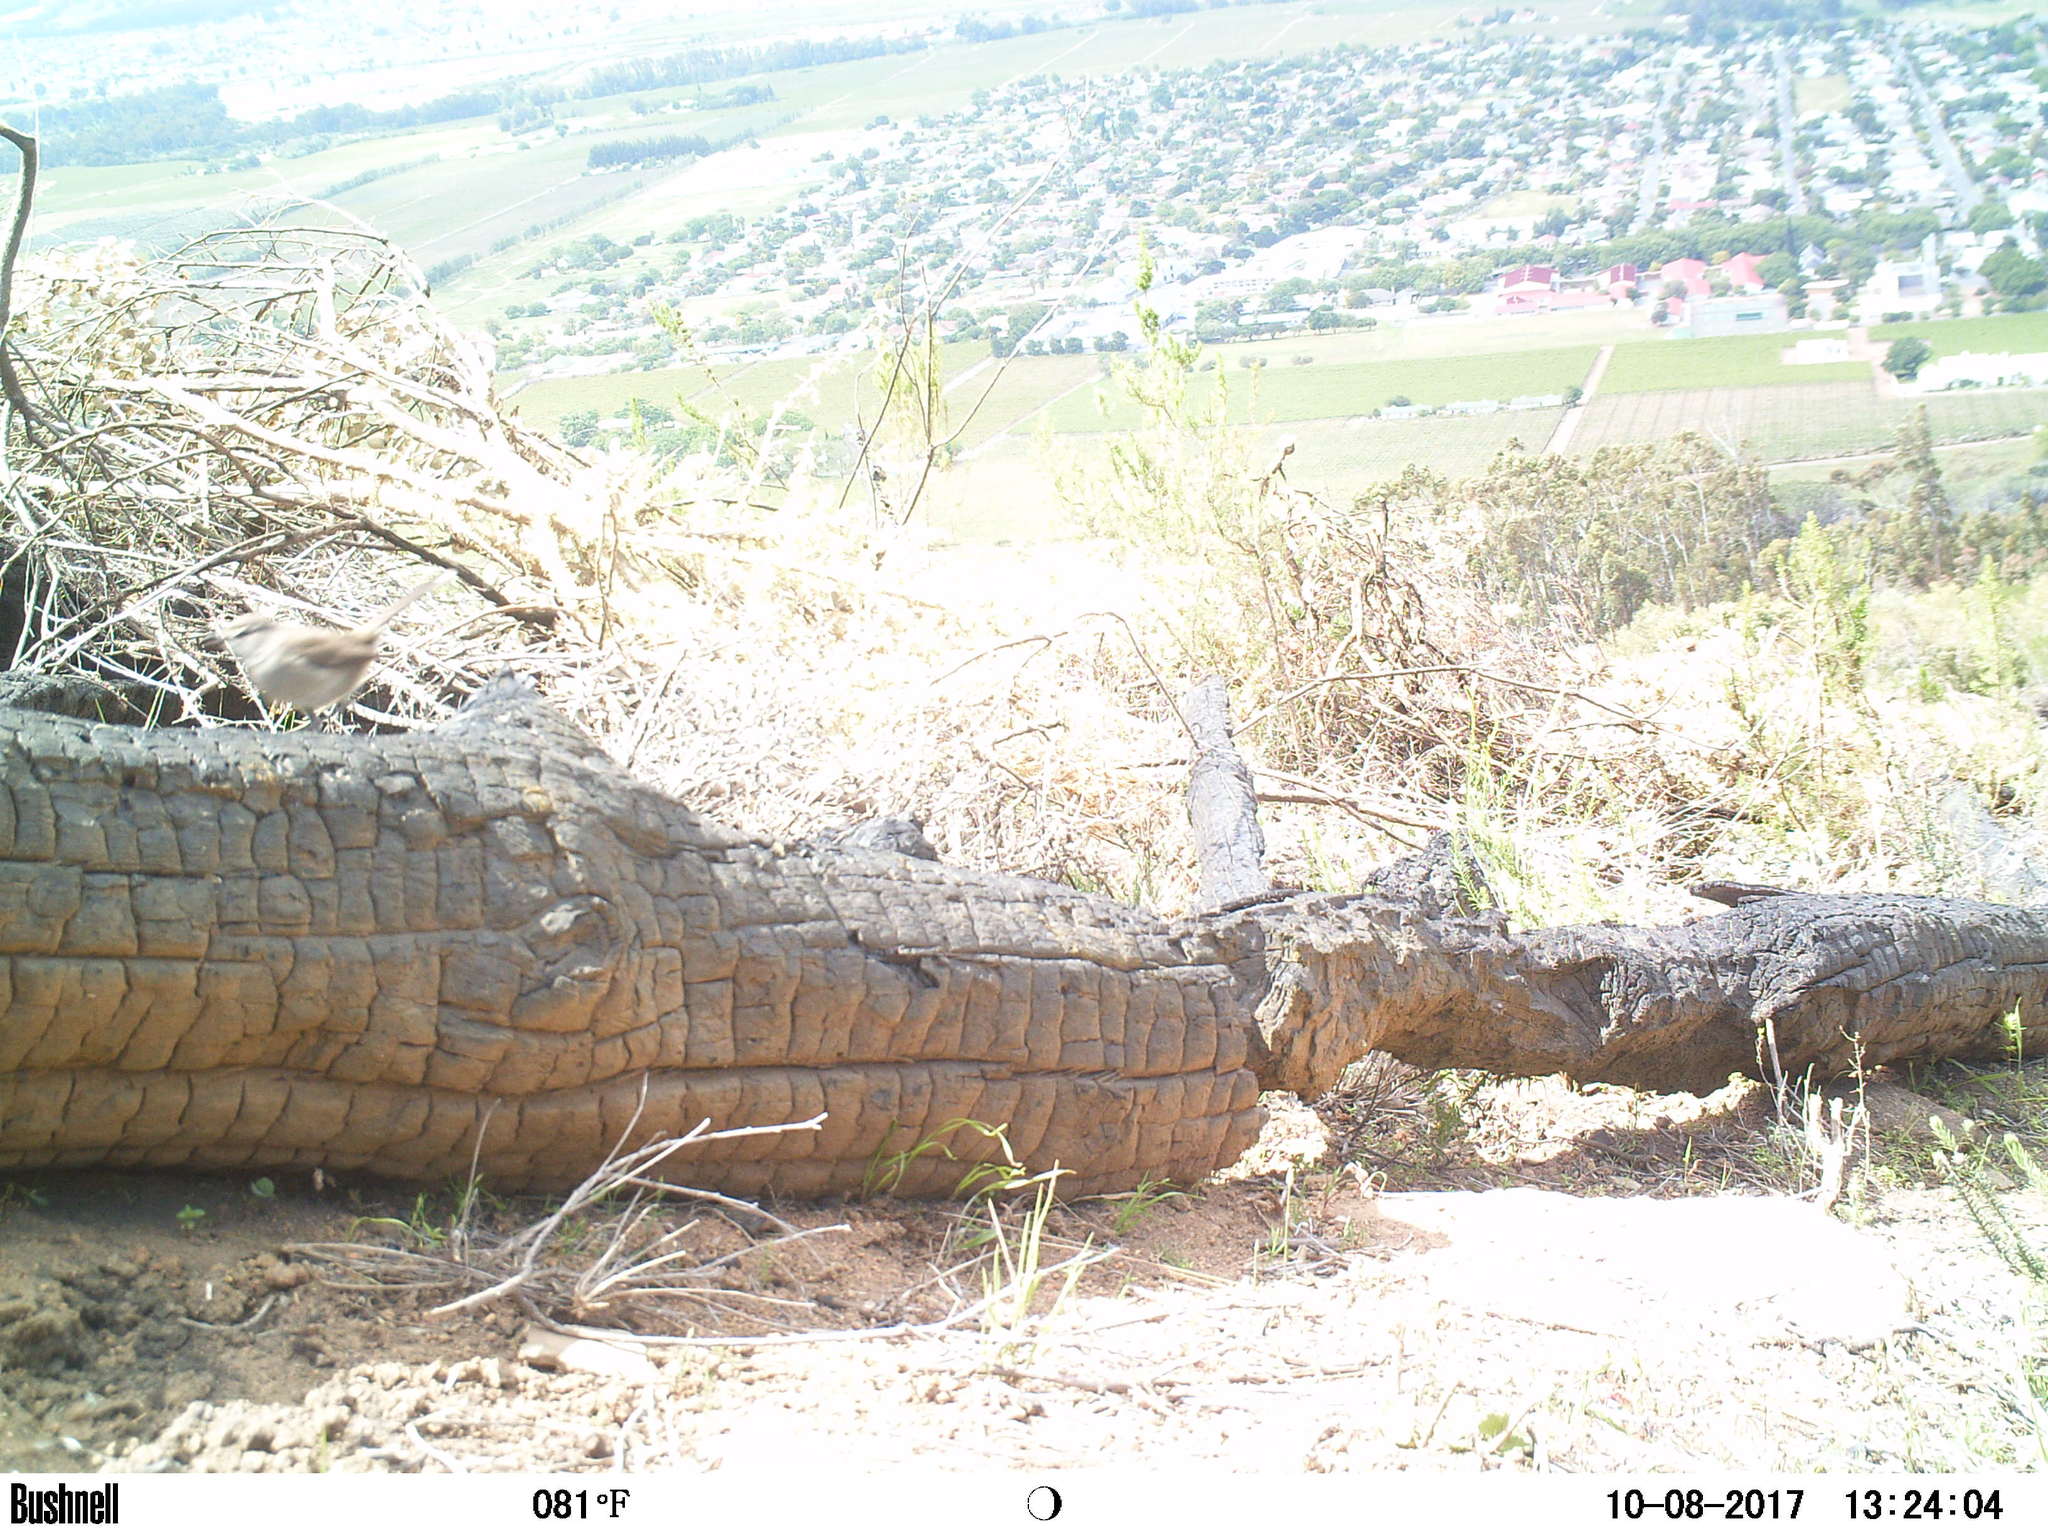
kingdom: Animalia
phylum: Chordata
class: Aves
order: Passeriformes
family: Muscicapidae
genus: Erythropygia
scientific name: Erythropygia coryphoeus
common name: Karoo scrub robin
